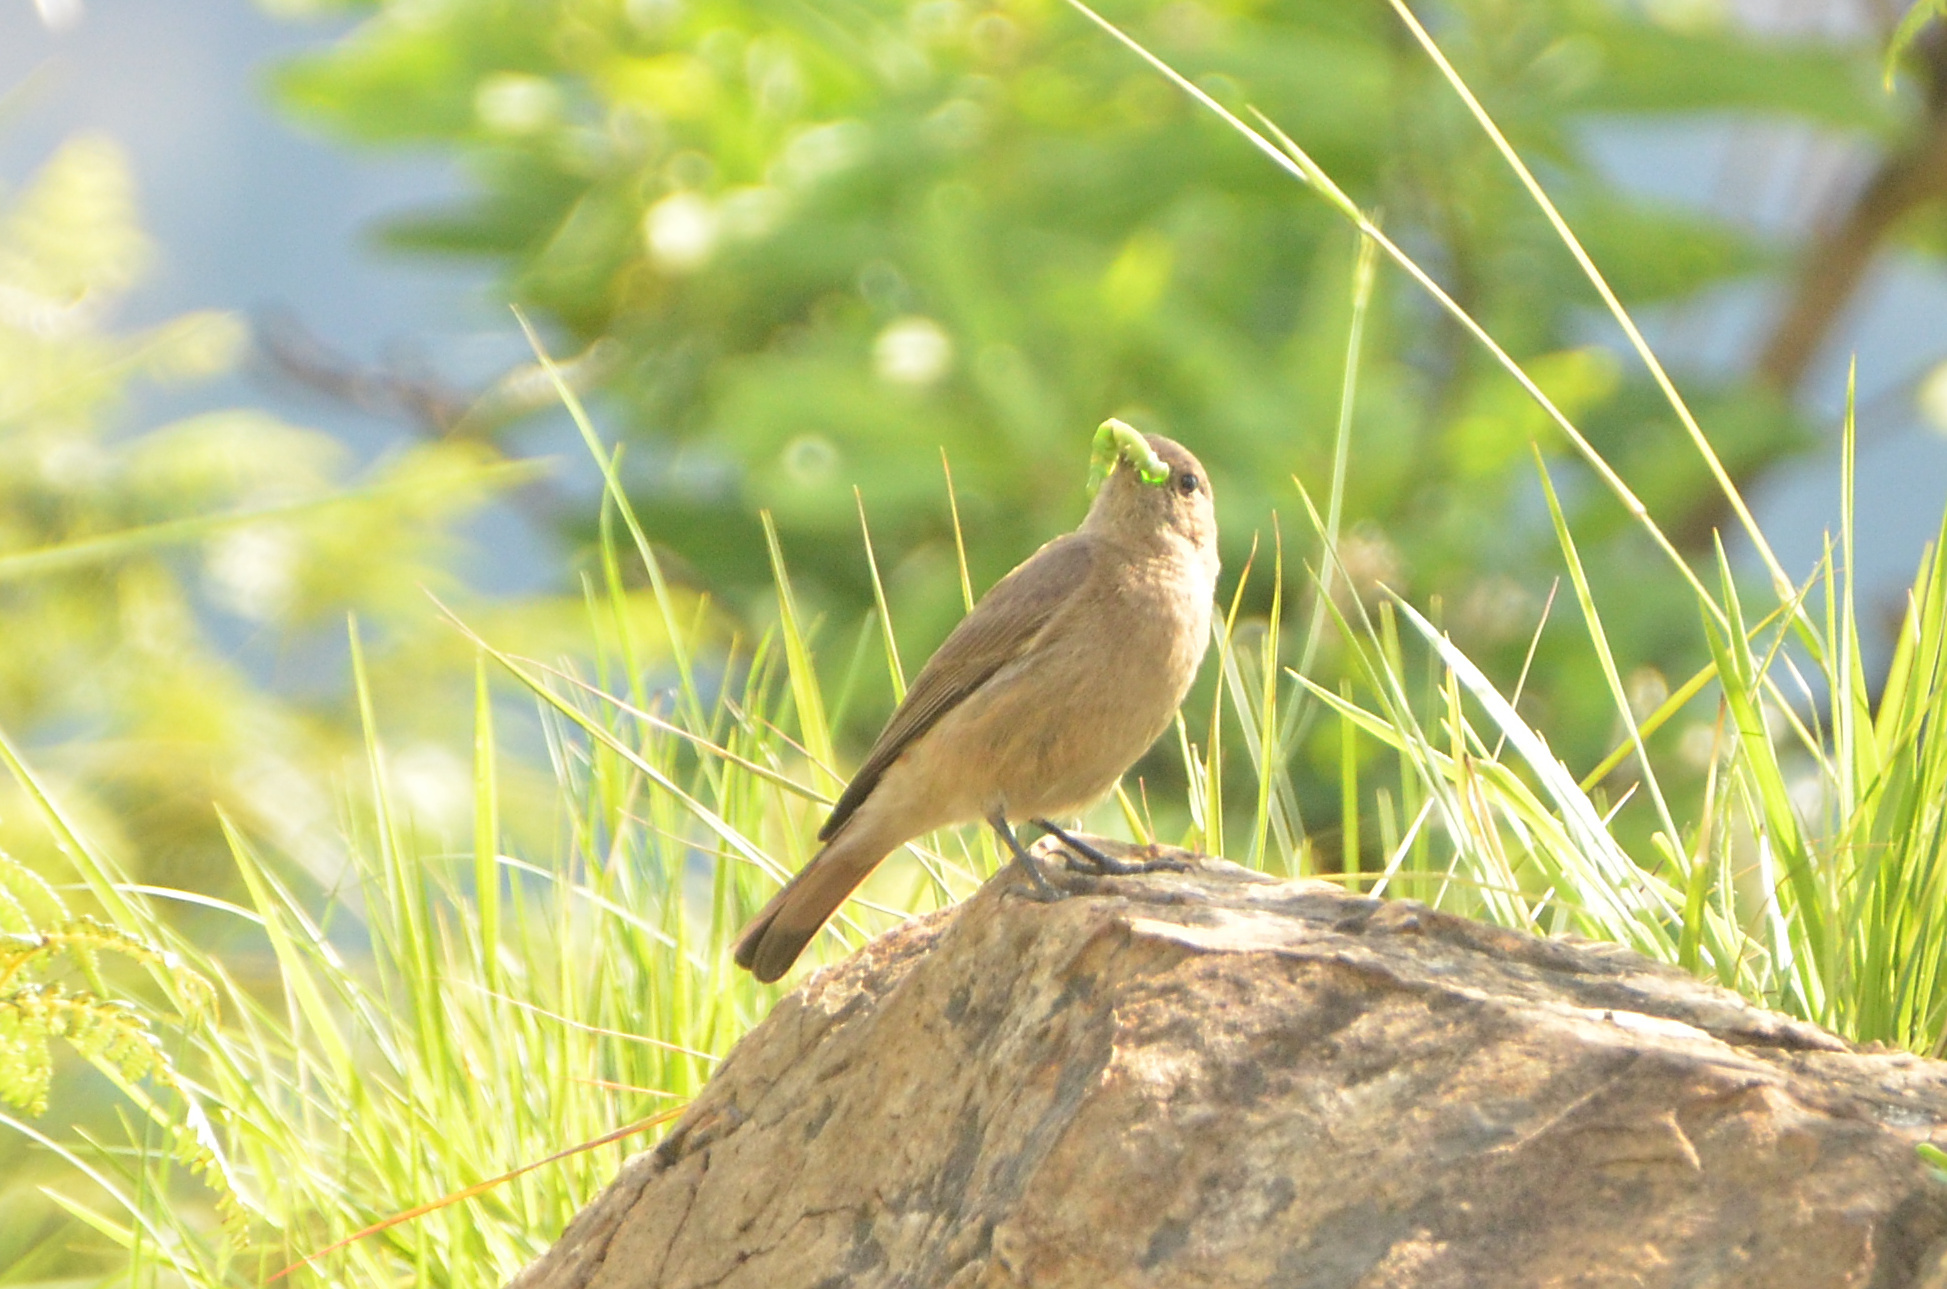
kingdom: Animalia
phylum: Chordata
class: Aves
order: Passeriformes
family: Muscicapidae
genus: Oenanthe
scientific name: Oenanthe familiaris
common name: Familiar chat
